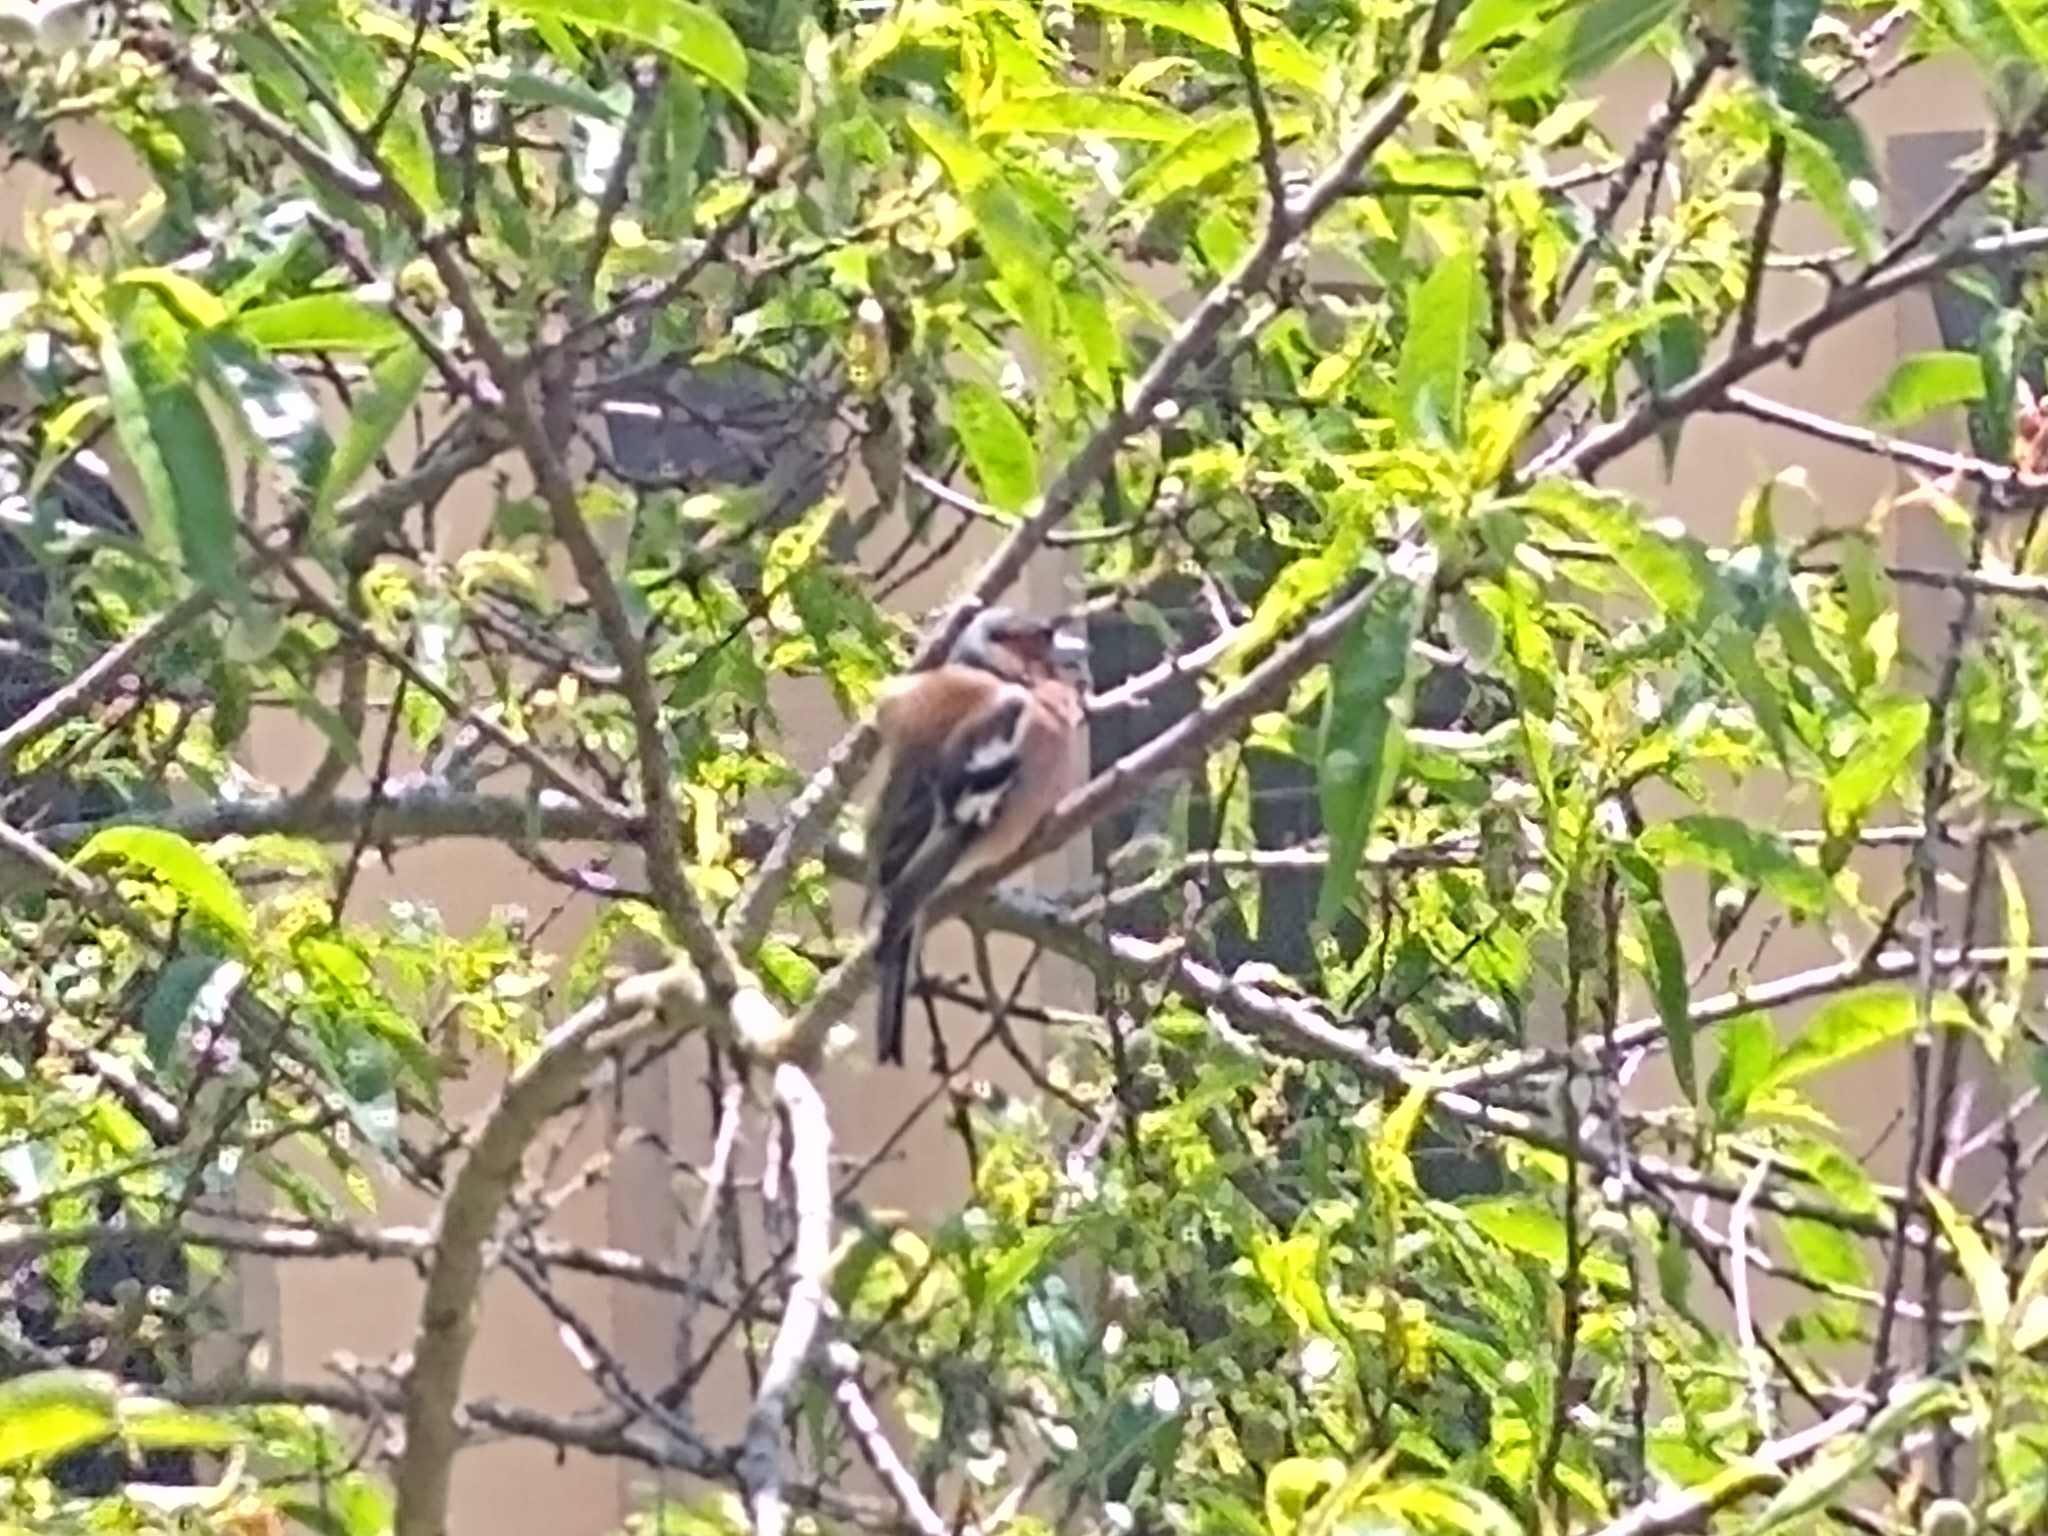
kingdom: Animalia
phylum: Chordata
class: Aves
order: Passeriformes
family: Fringillidae
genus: Fringilla
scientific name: Fringilla coelebs
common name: Common chaffinch
